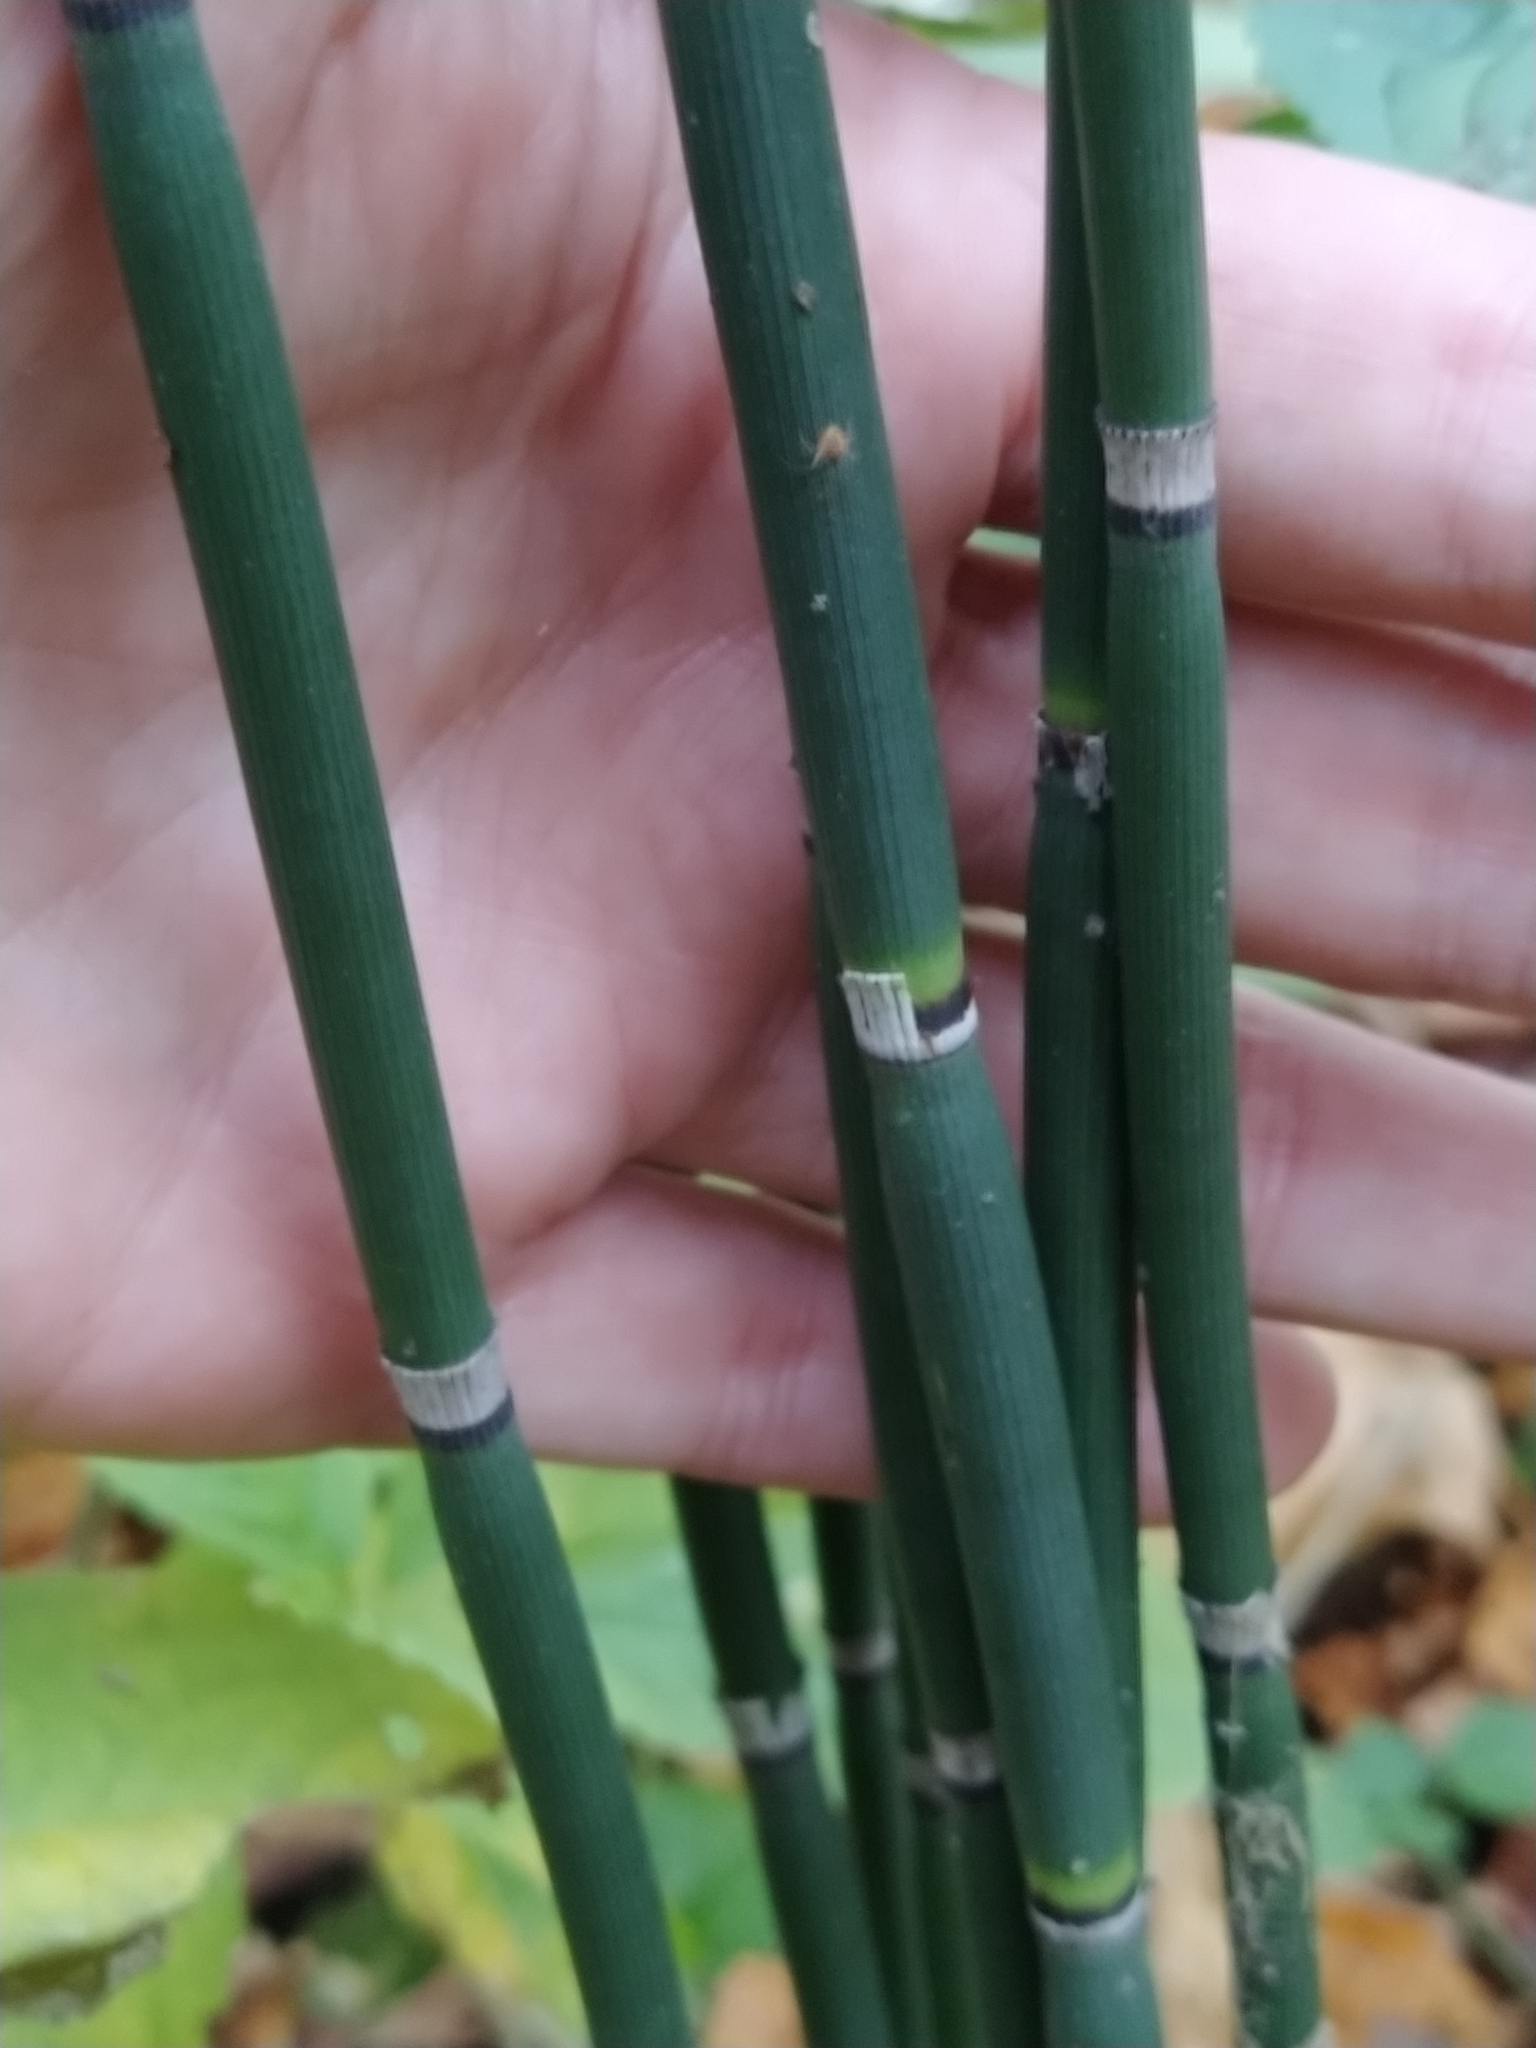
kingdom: Plantae
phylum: Tracheophyta
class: Polypodiopsida
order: Equisetales
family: Equisetaceae
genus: Equisetum
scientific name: Equisetum hyemale
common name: Rough horsetail
